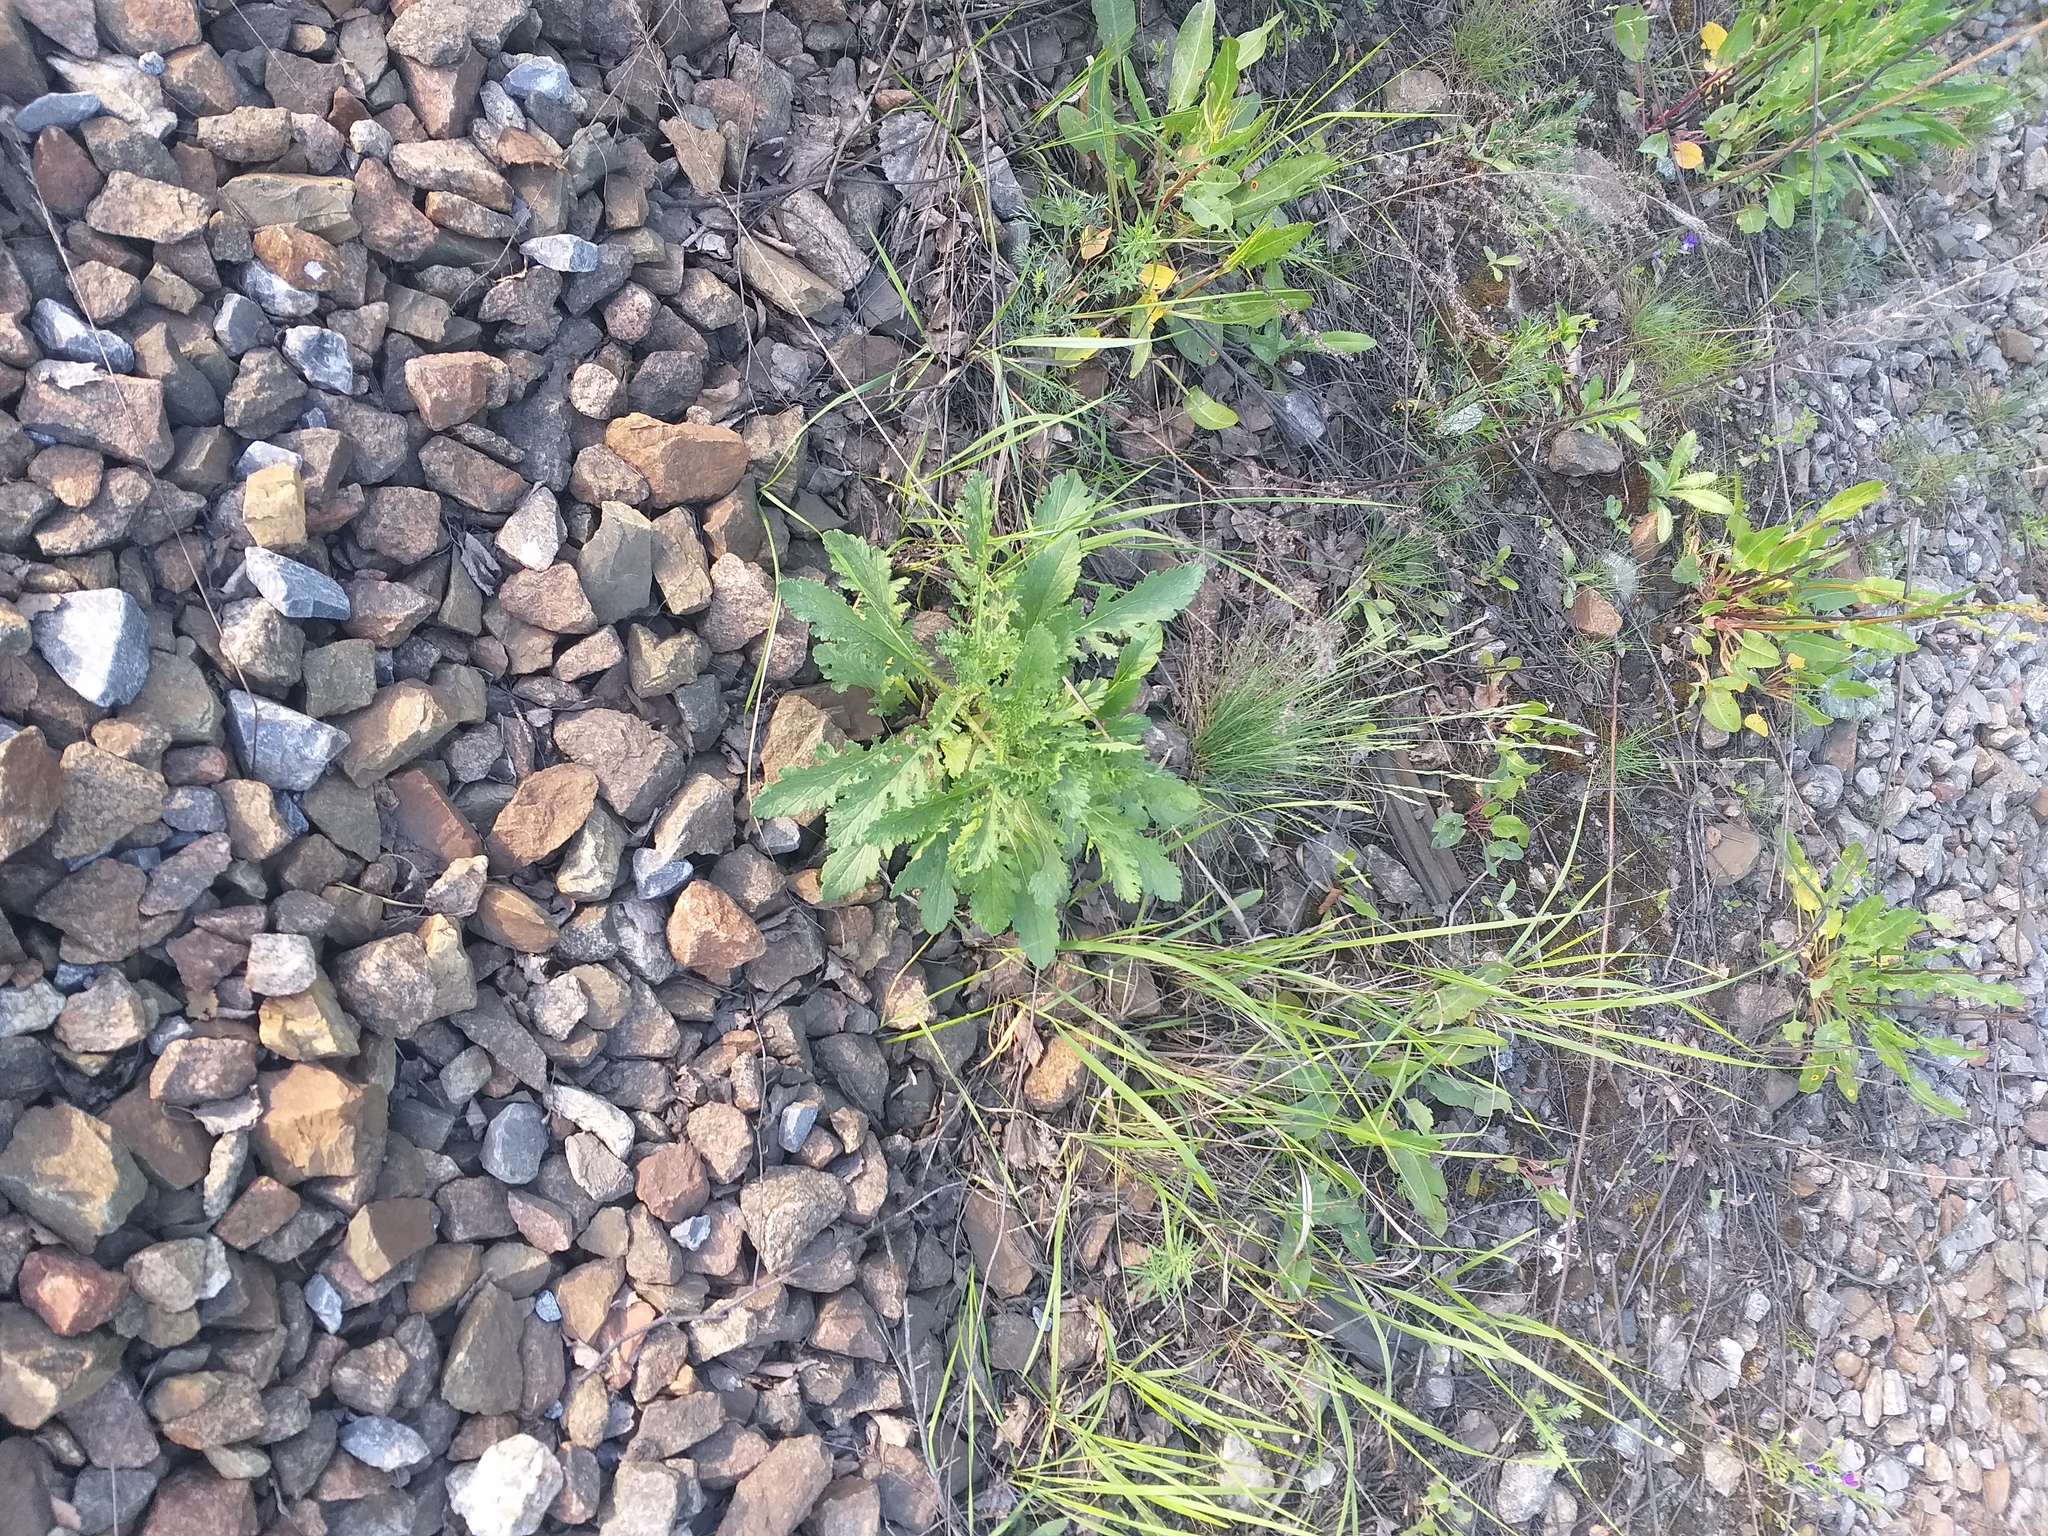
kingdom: Plantae
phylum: Tracheophyta
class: Magnoliopsida
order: Asterales
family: Asteraceae
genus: Jacobaea
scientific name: Jacobaea vulgaris
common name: Stinking willie
